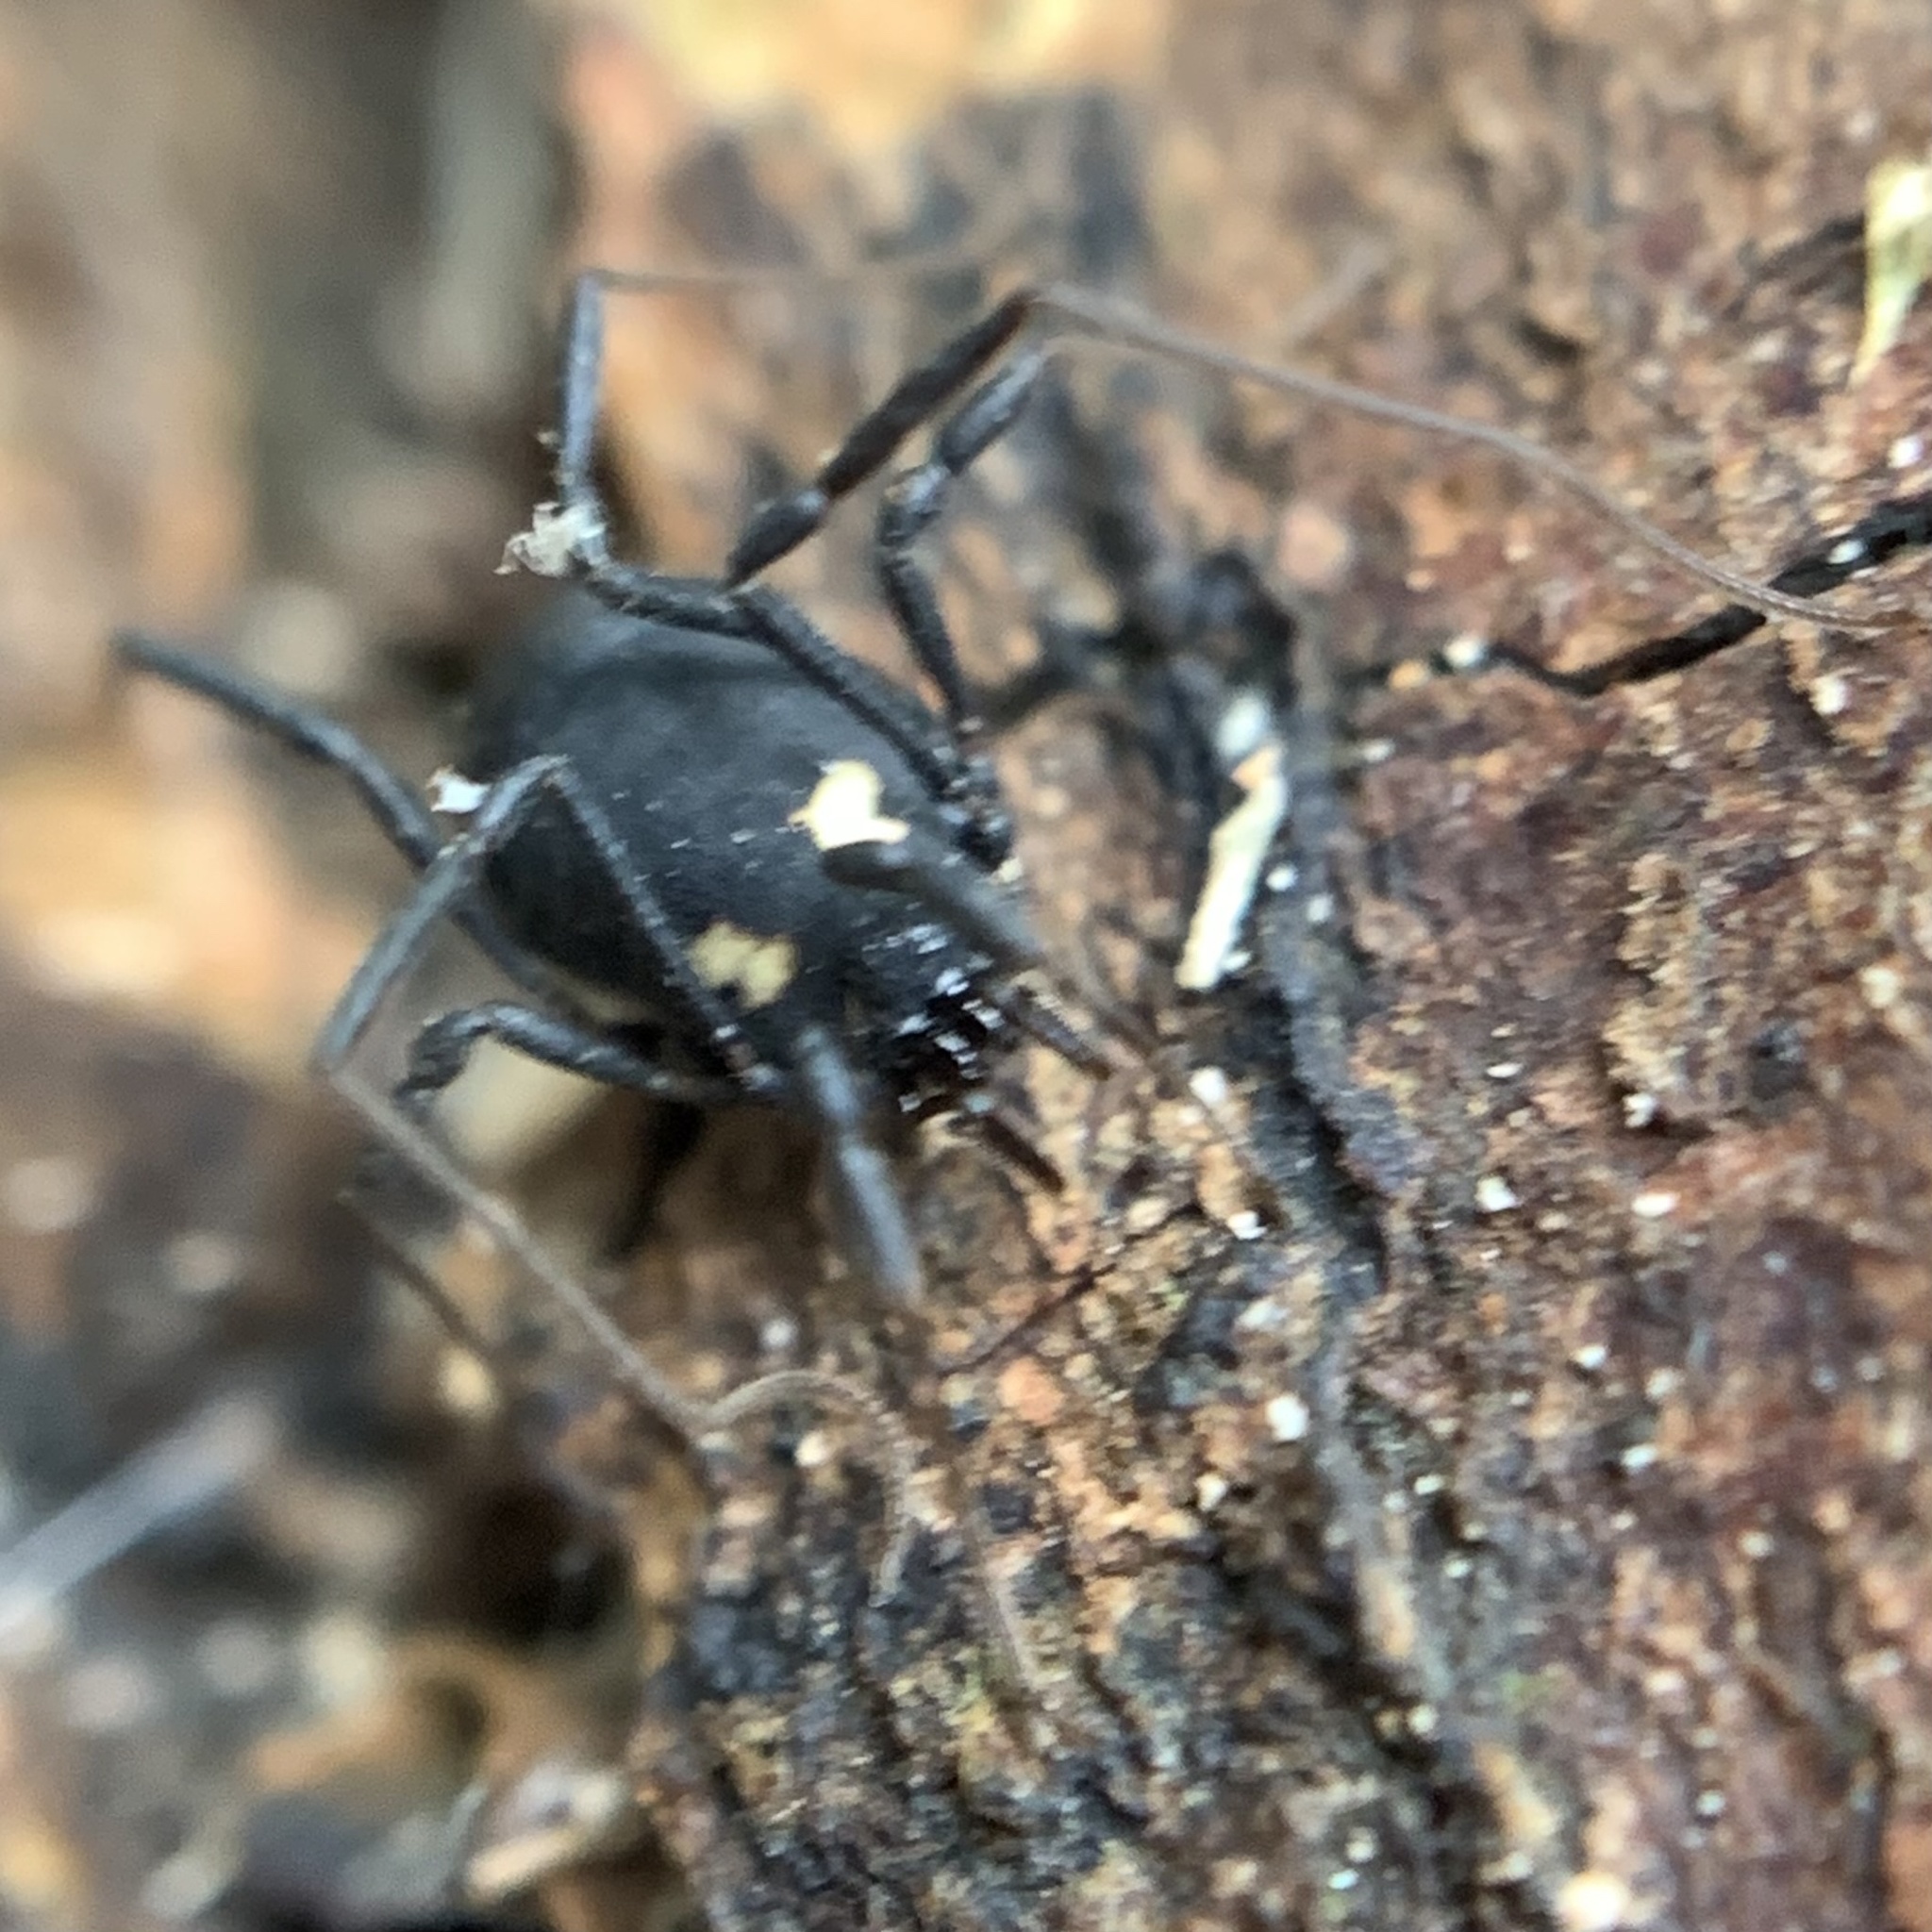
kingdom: Animalia
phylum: Arthropoda
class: Arachnida
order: Opiliones
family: Nemastomatidae
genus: Nemastoma
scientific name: Nemastoma bimaculatum
